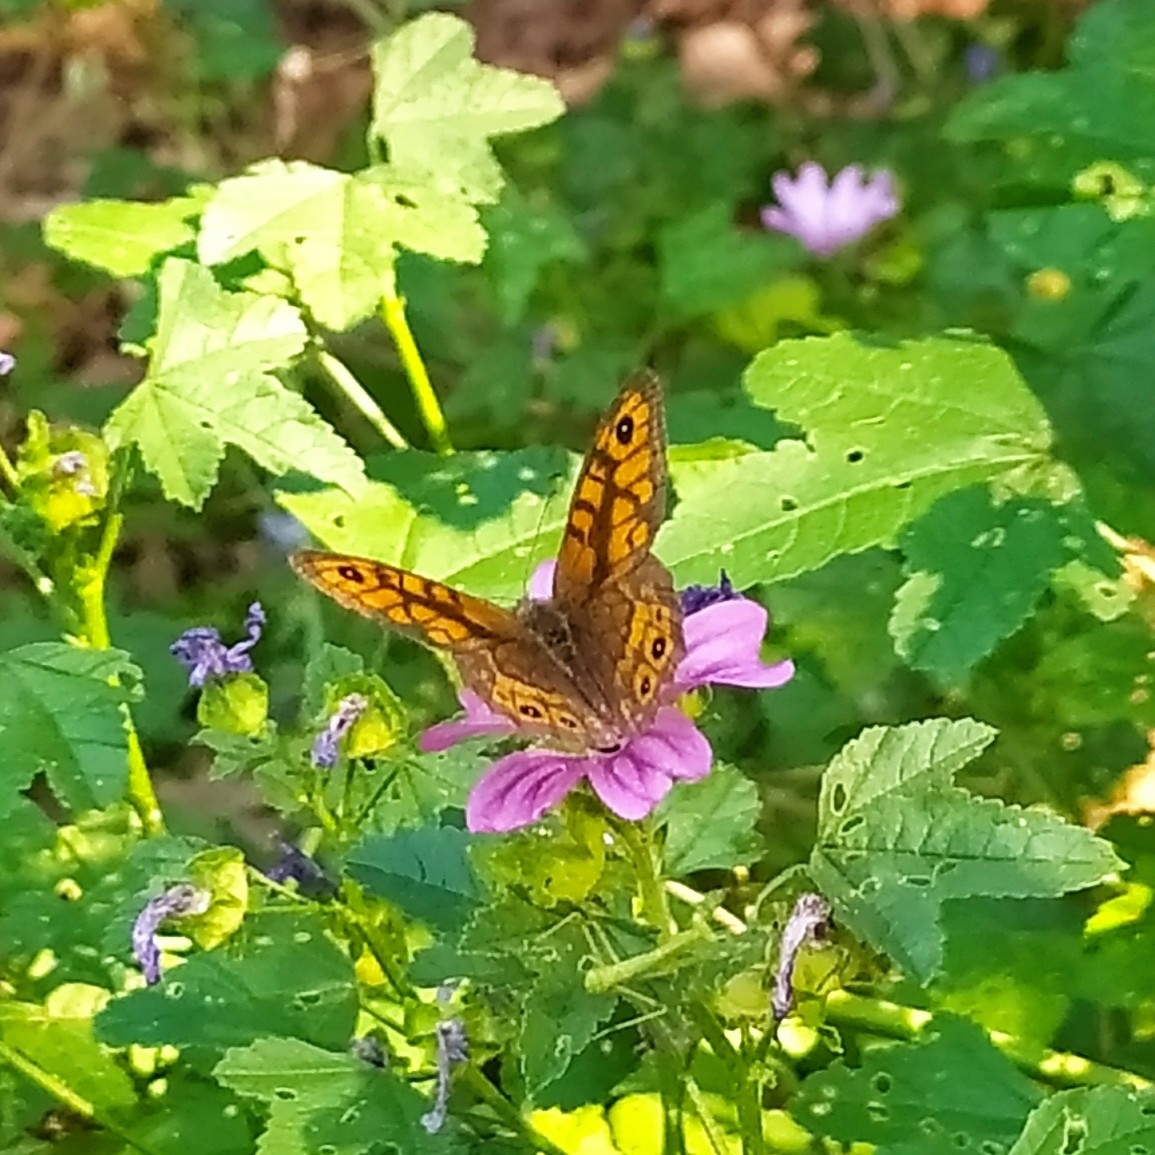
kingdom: Animalia
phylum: Arthropoda
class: Insecta
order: Lepidoptera
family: Nymphalidae
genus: Pararge
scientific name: Pararge Lasiommata megera
